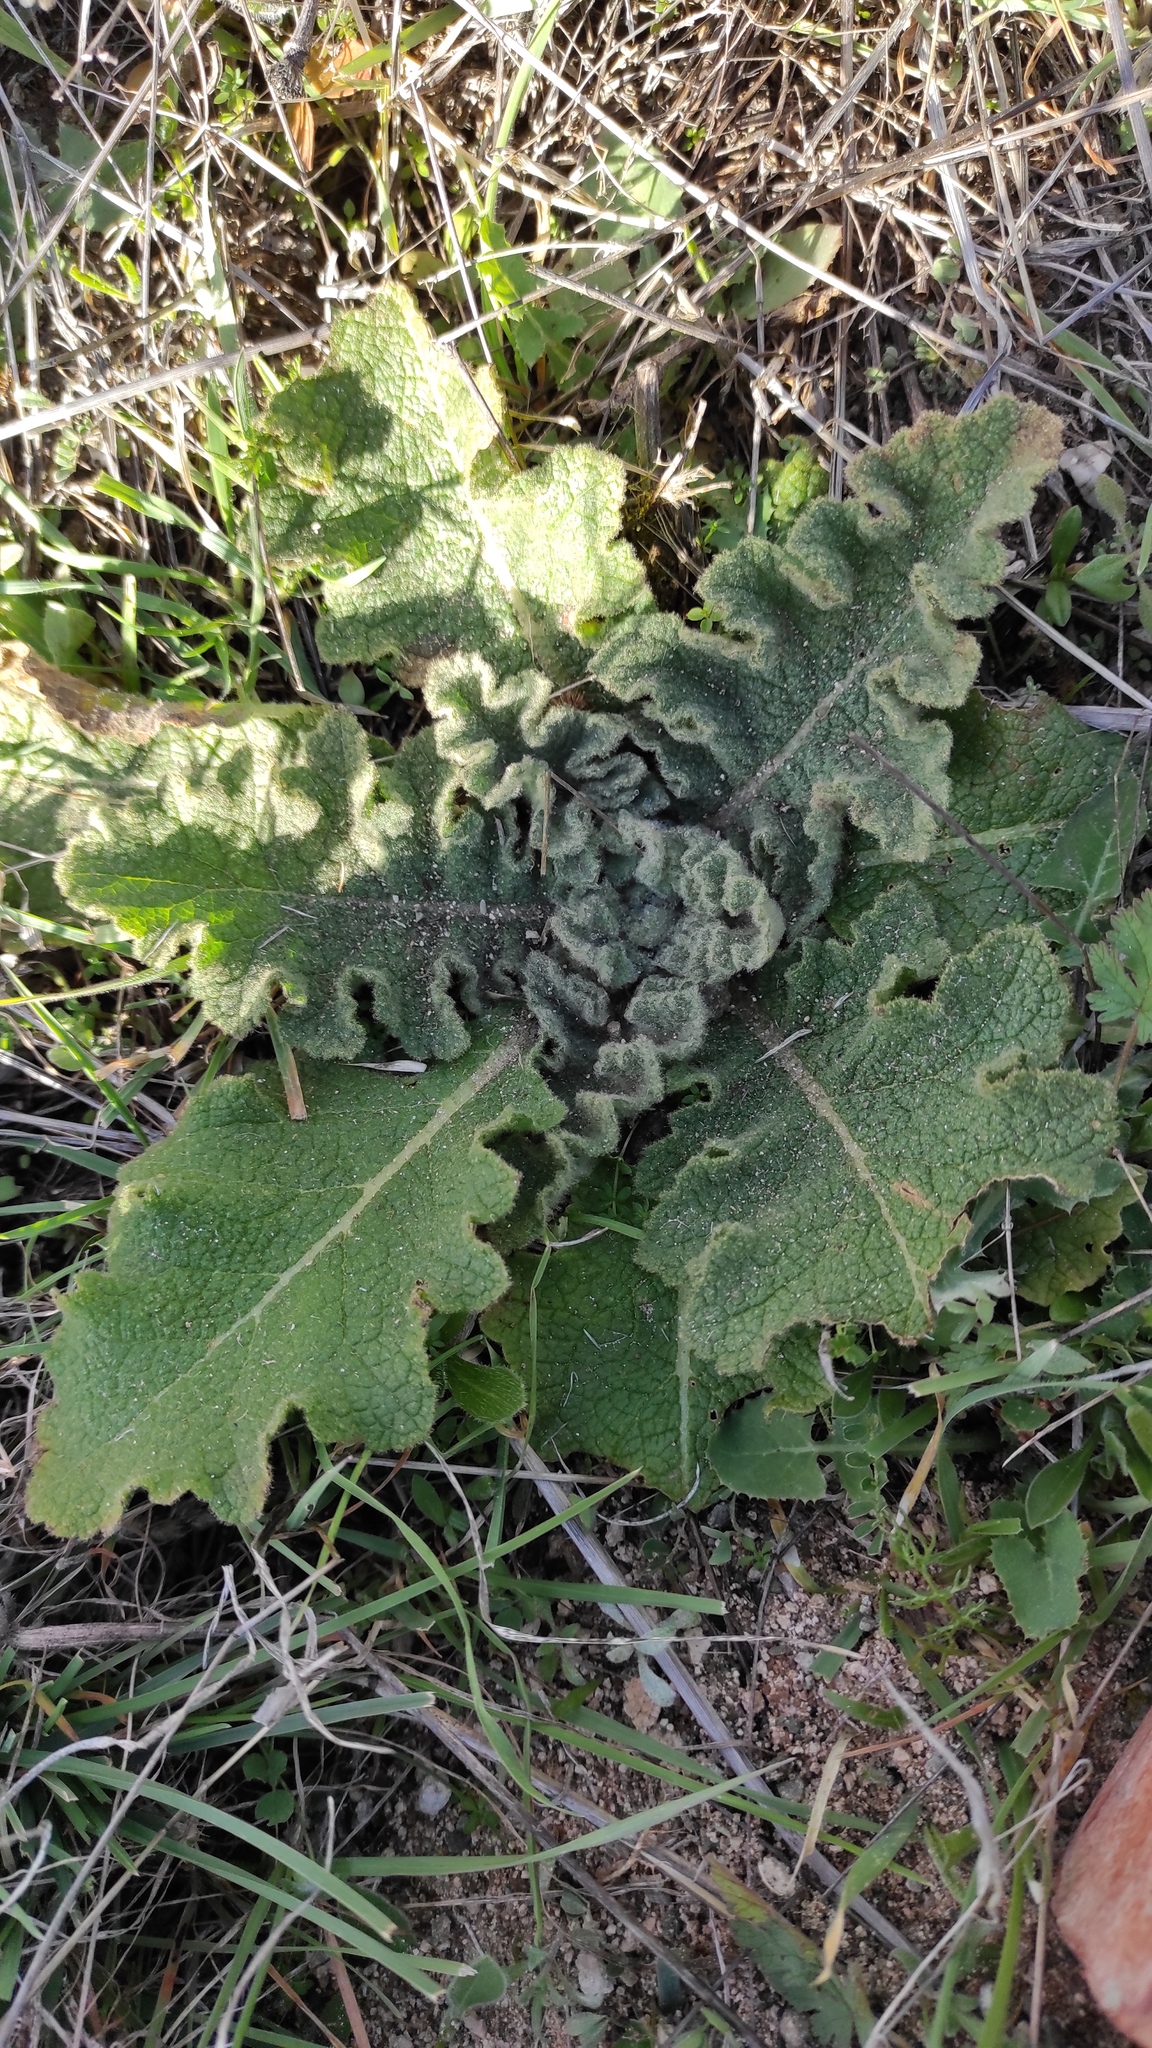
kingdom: Plantae
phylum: Tracheophyta
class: Magnoliopsida
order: Lamiales
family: Scrophulariaceae
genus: Verbascum
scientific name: Verbascum sinuatum
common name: Wavyleaf mullein
